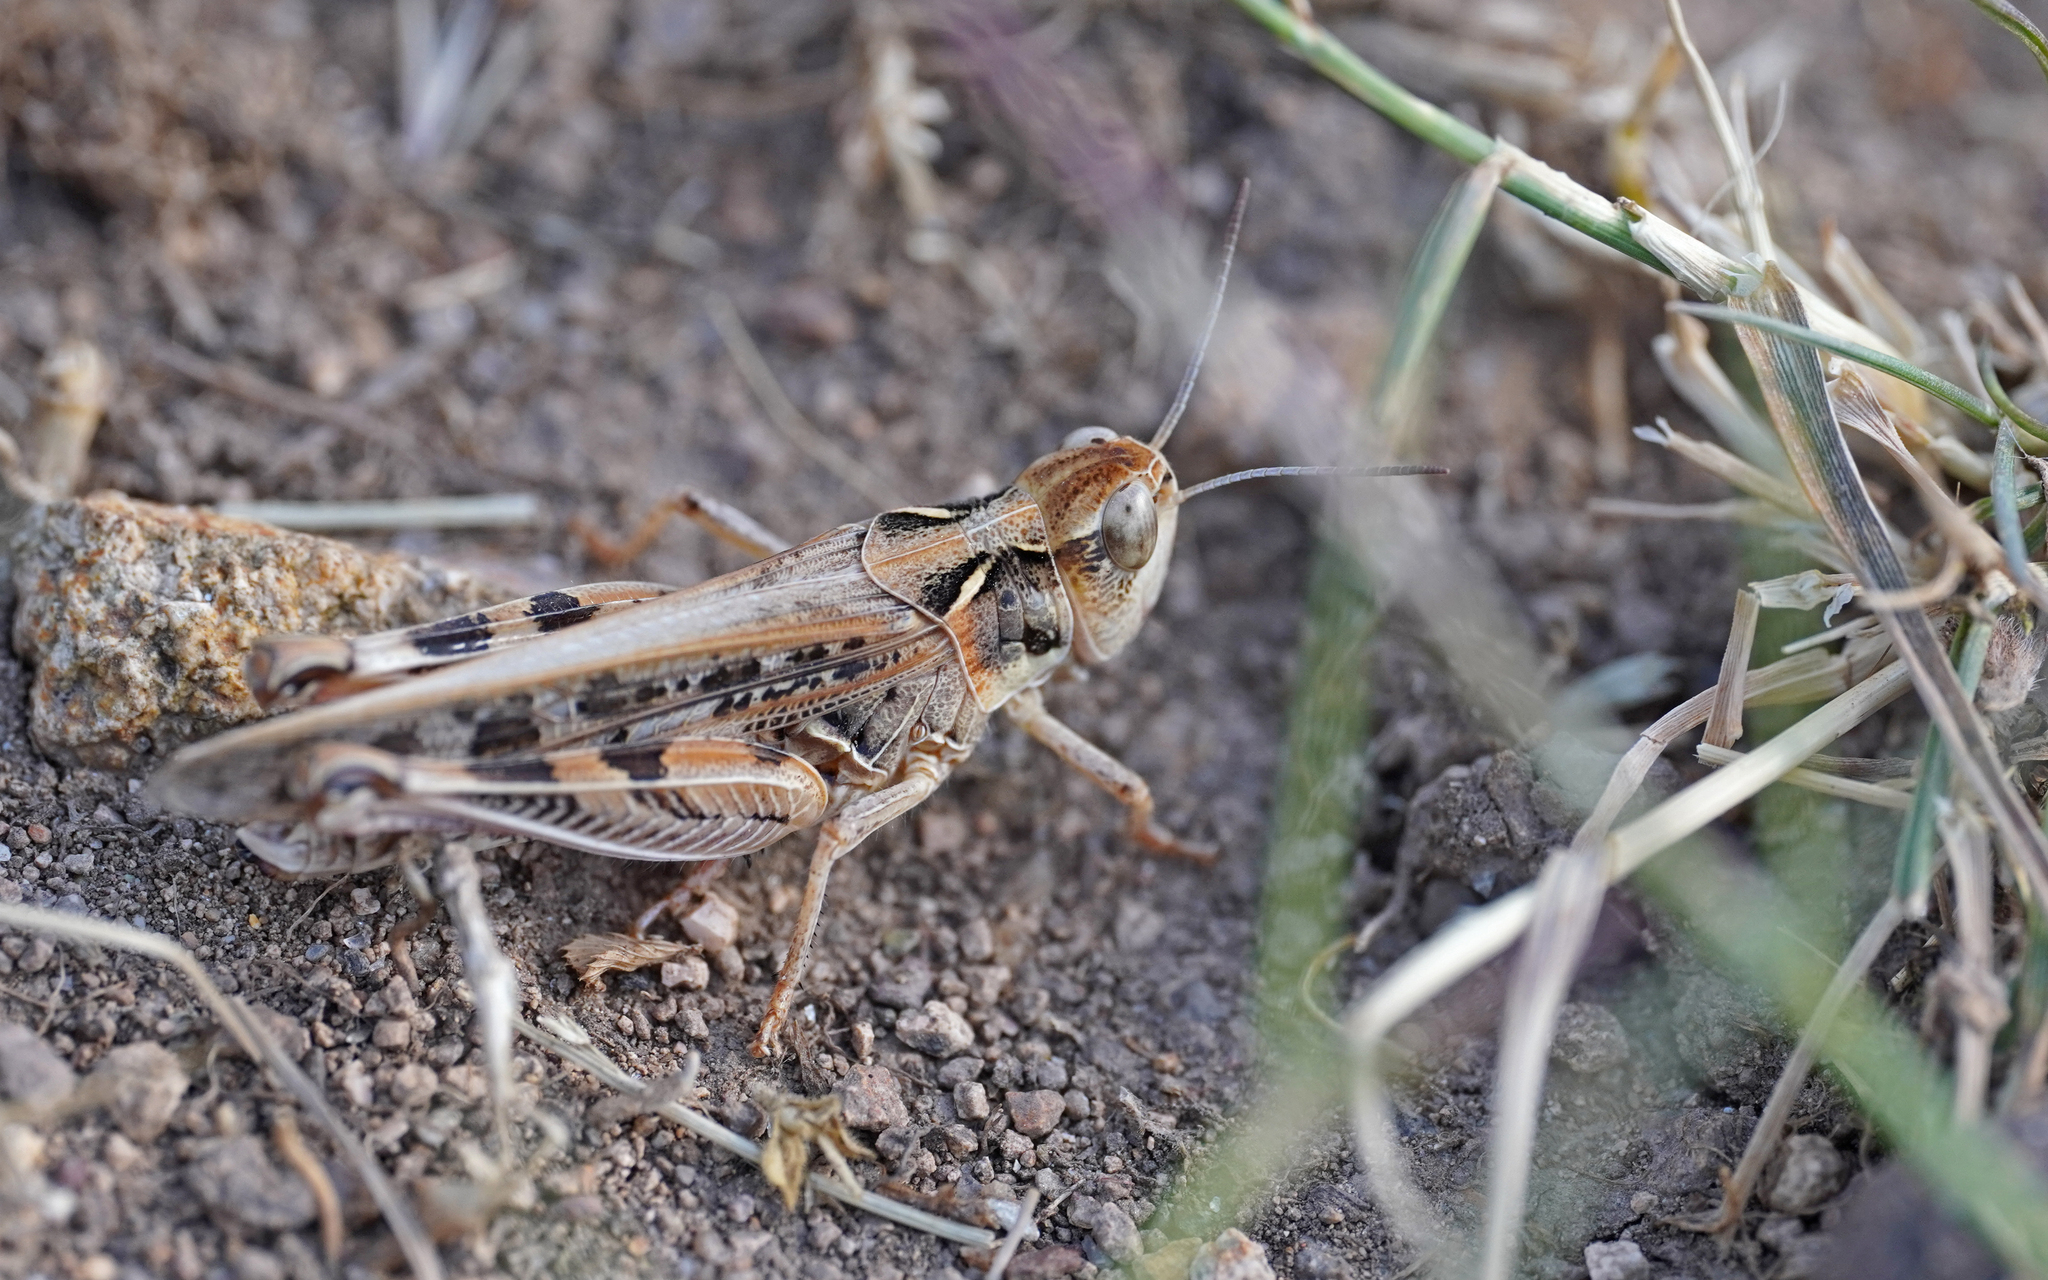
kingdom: Animalia
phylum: Arthropoda
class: Insecta
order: Orthoptera
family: Acrididae
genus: Dociostaurus
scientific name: Dociostaurus maroccanus
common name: Moroccan locust
